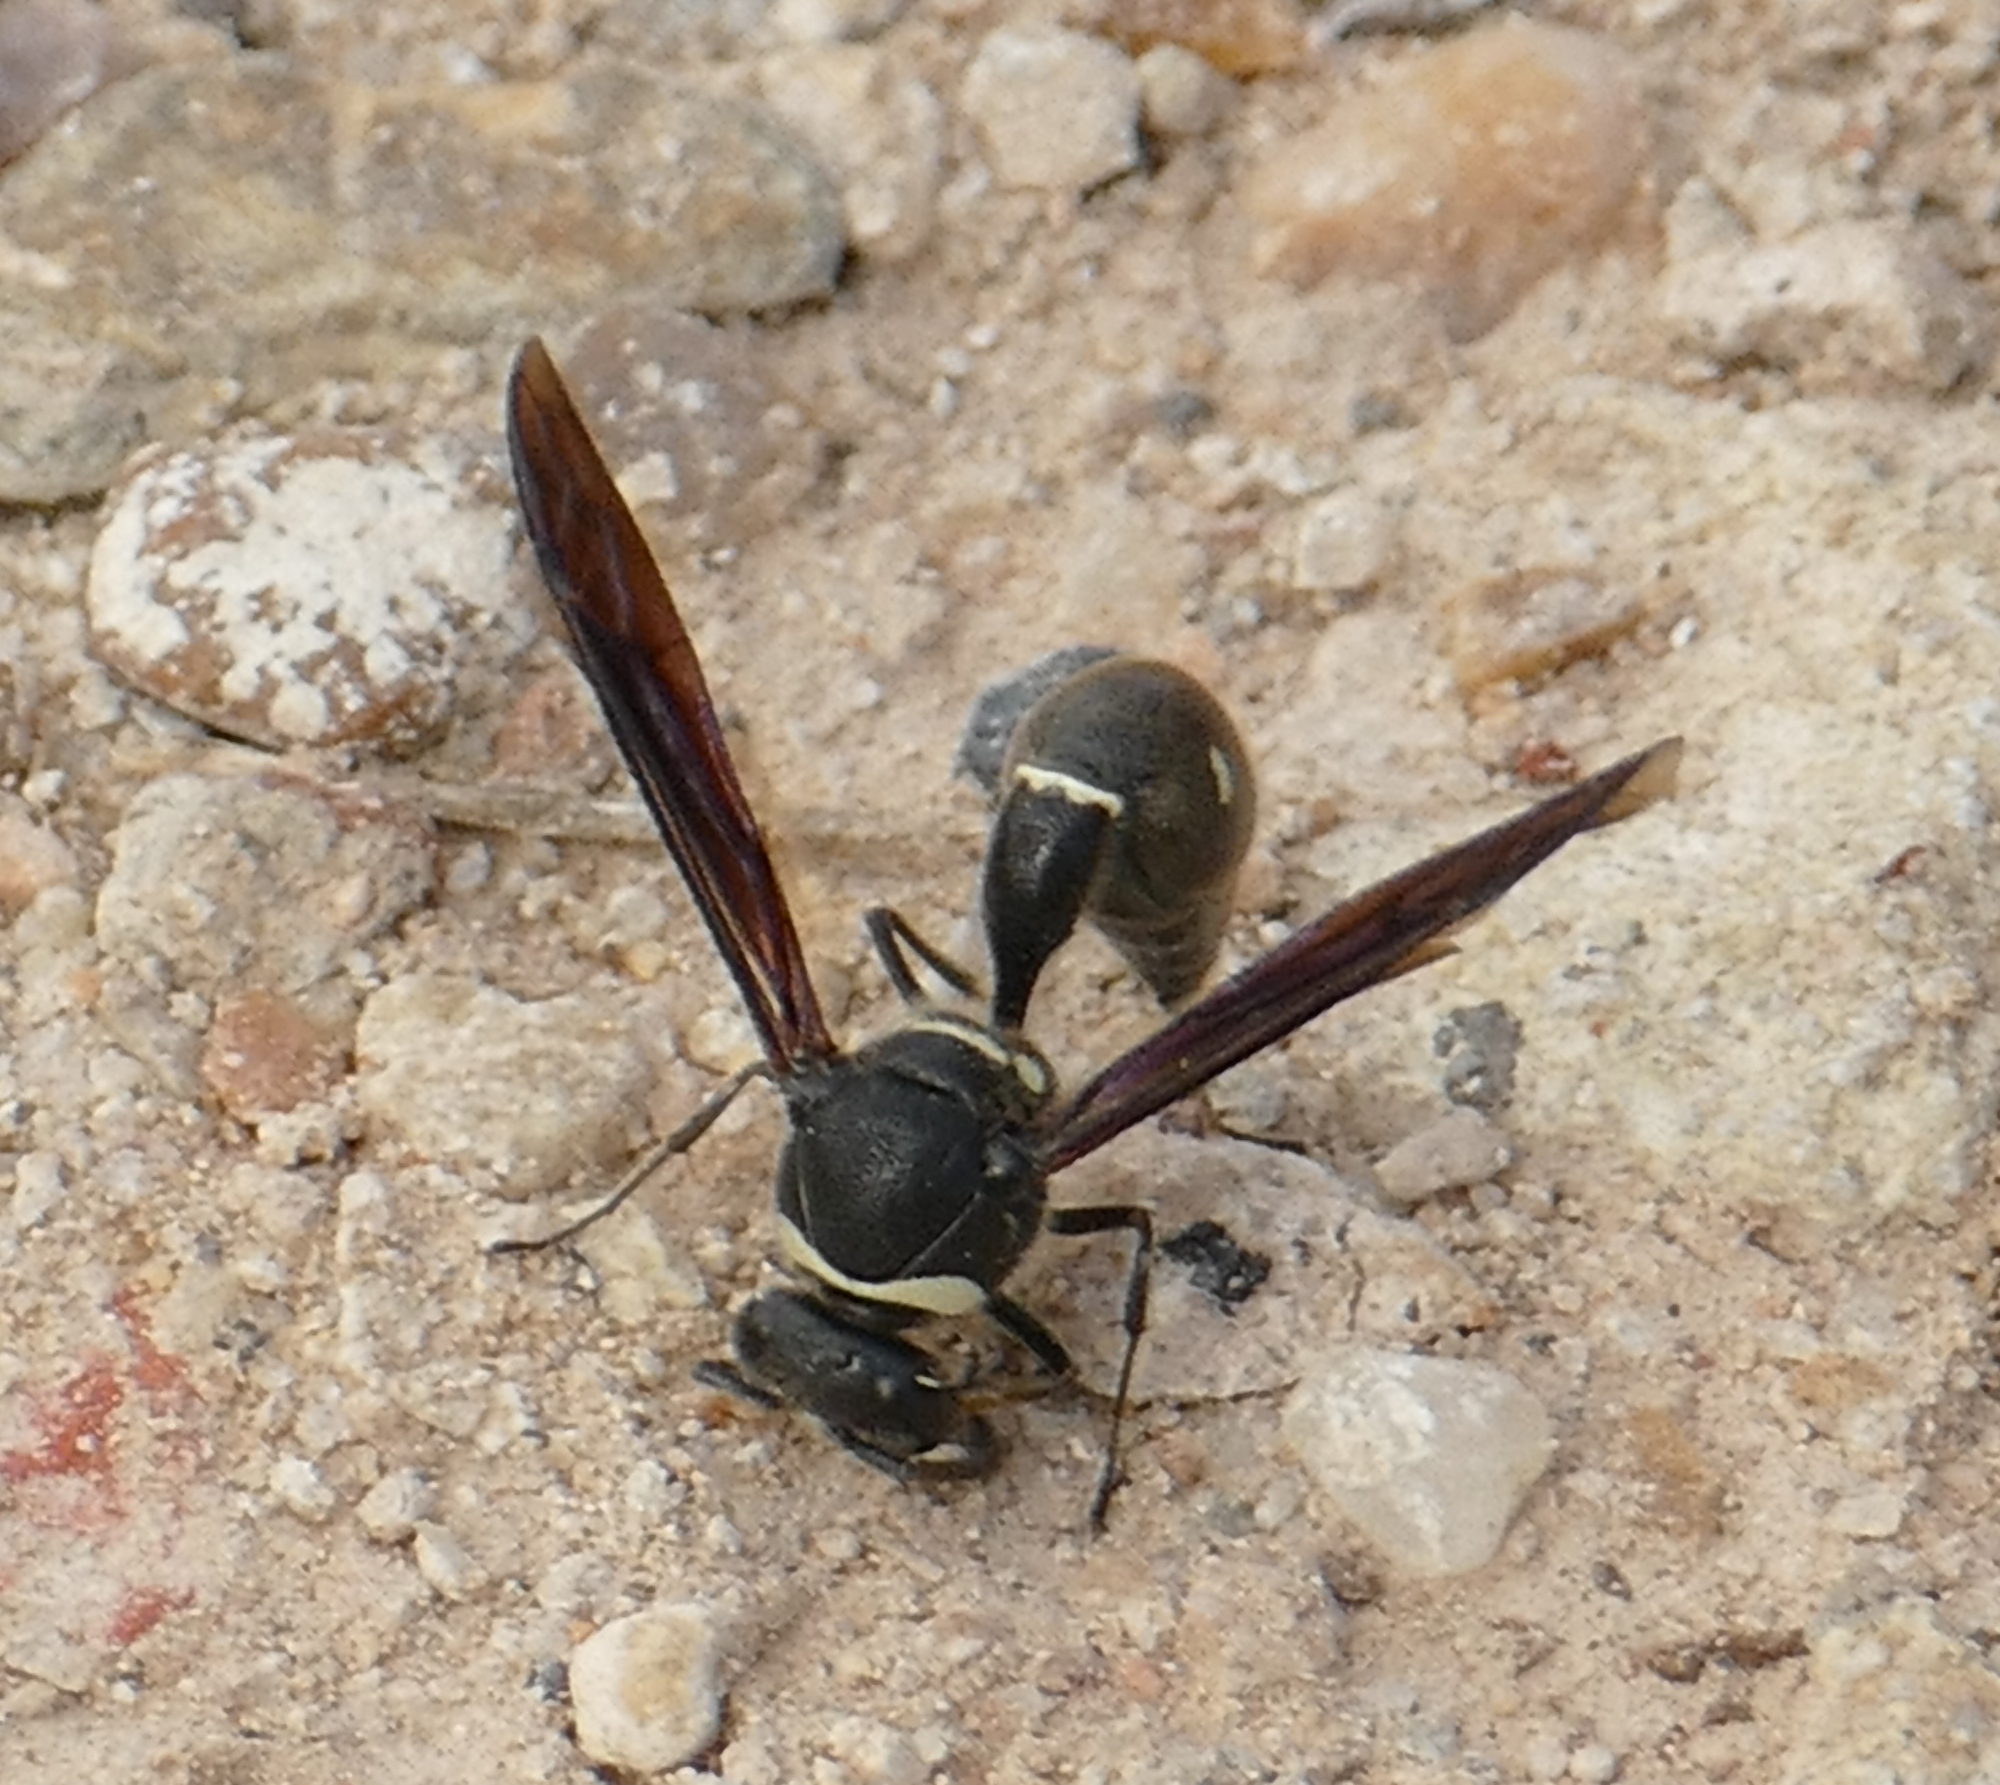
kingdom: Animalia
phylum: Arthropoda
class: Insecta
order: Hymenoptera
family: Vespidae
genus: Eumenes
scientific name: Eumenes fraternus
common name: Fraternal potter wasp
